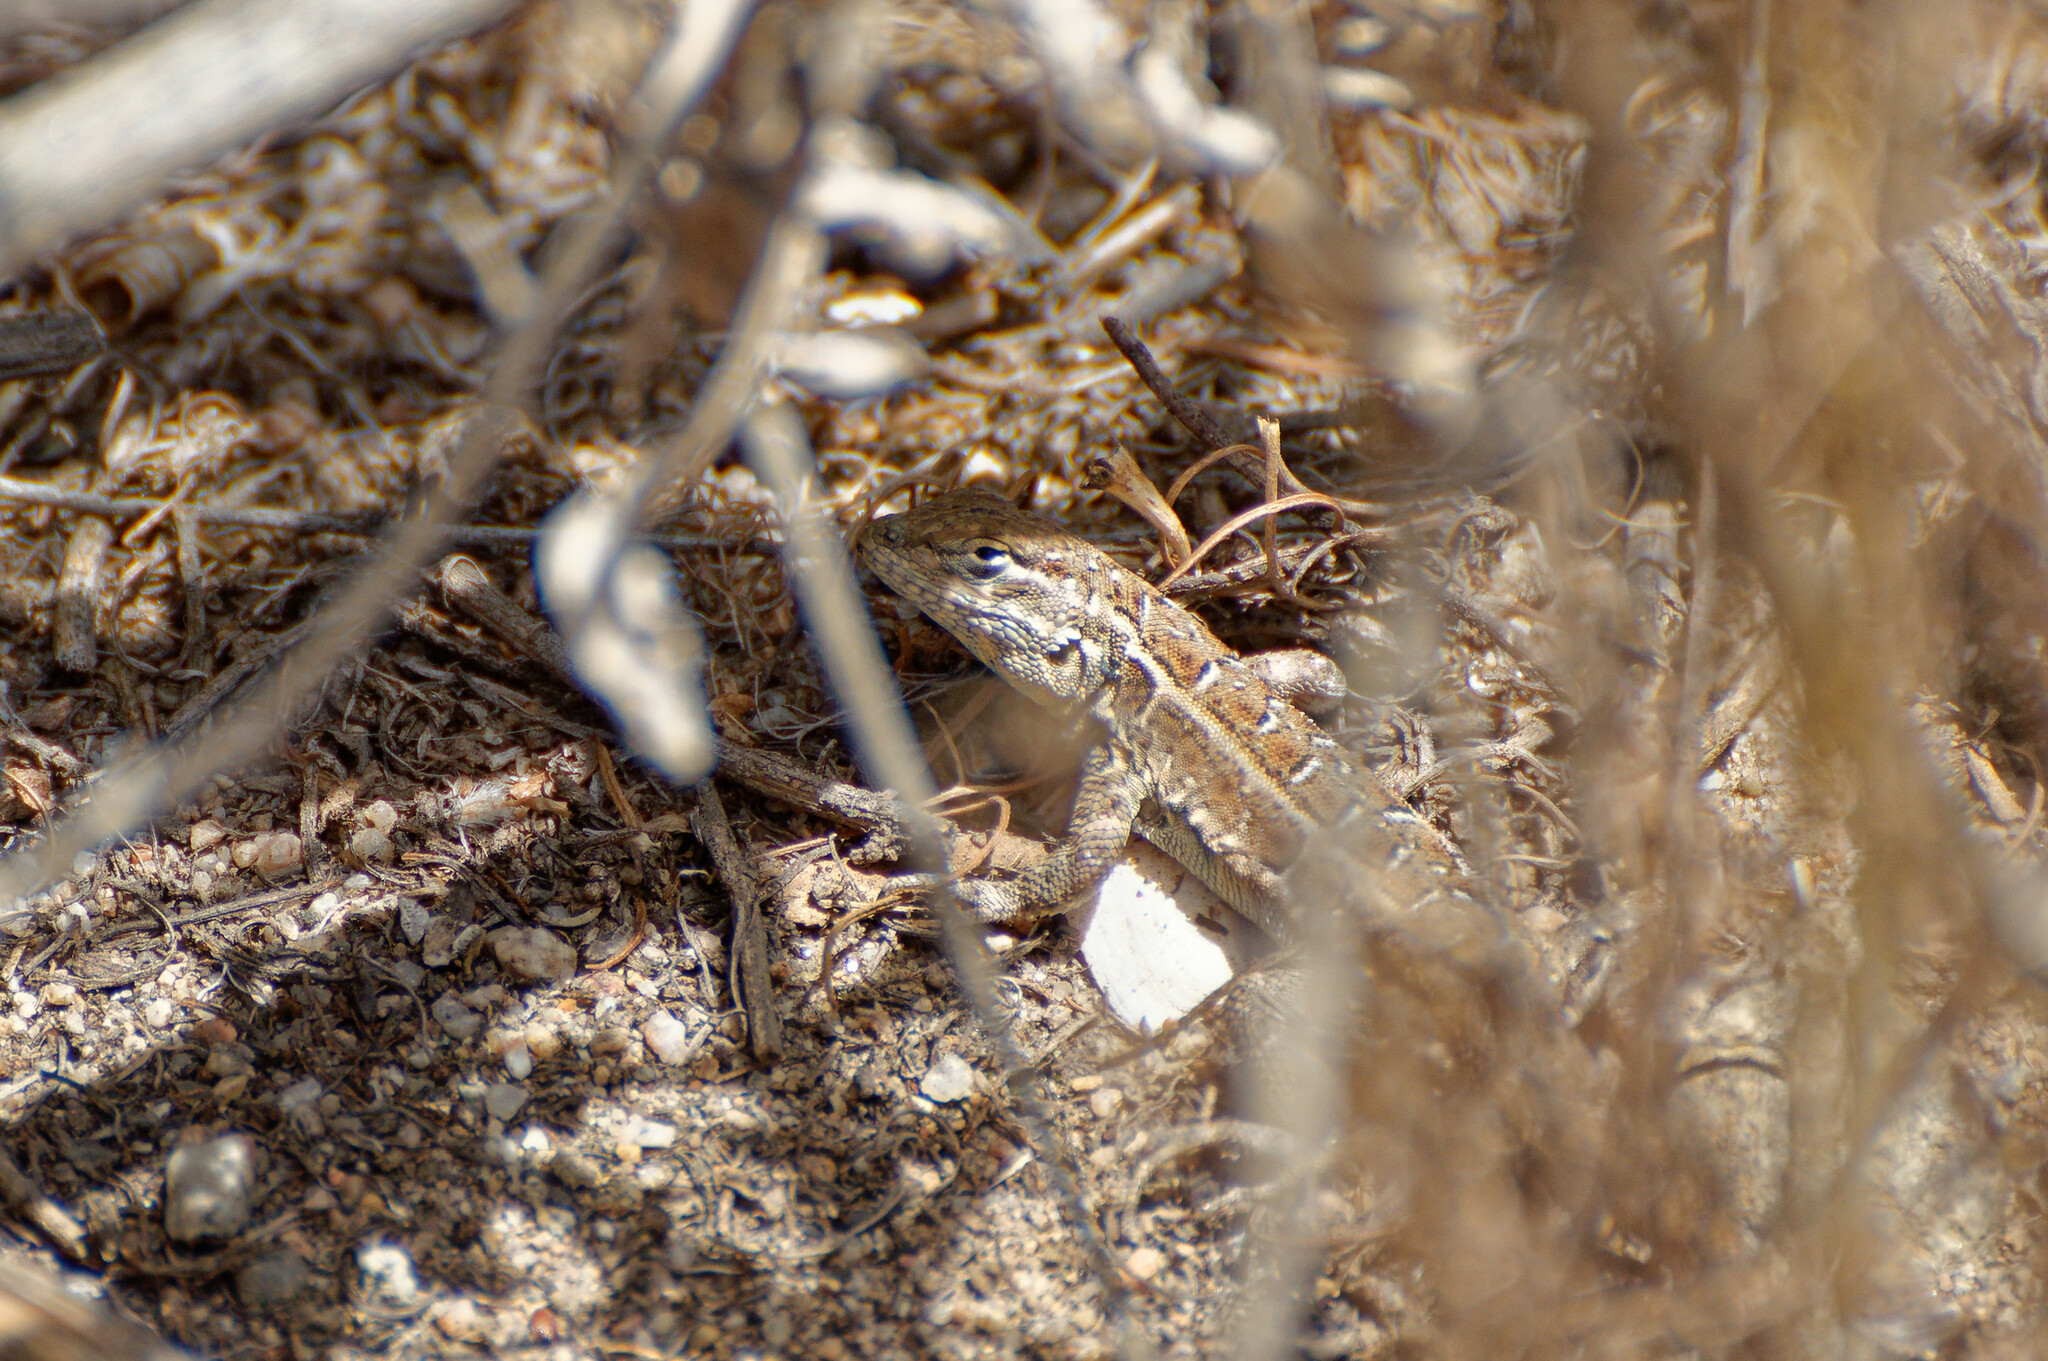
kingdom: Animalia
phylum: Chordata
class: Squamata
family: Phrynosomatidae
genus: Uta
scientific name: Uta stansburiana
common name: Side-blotched lizard
